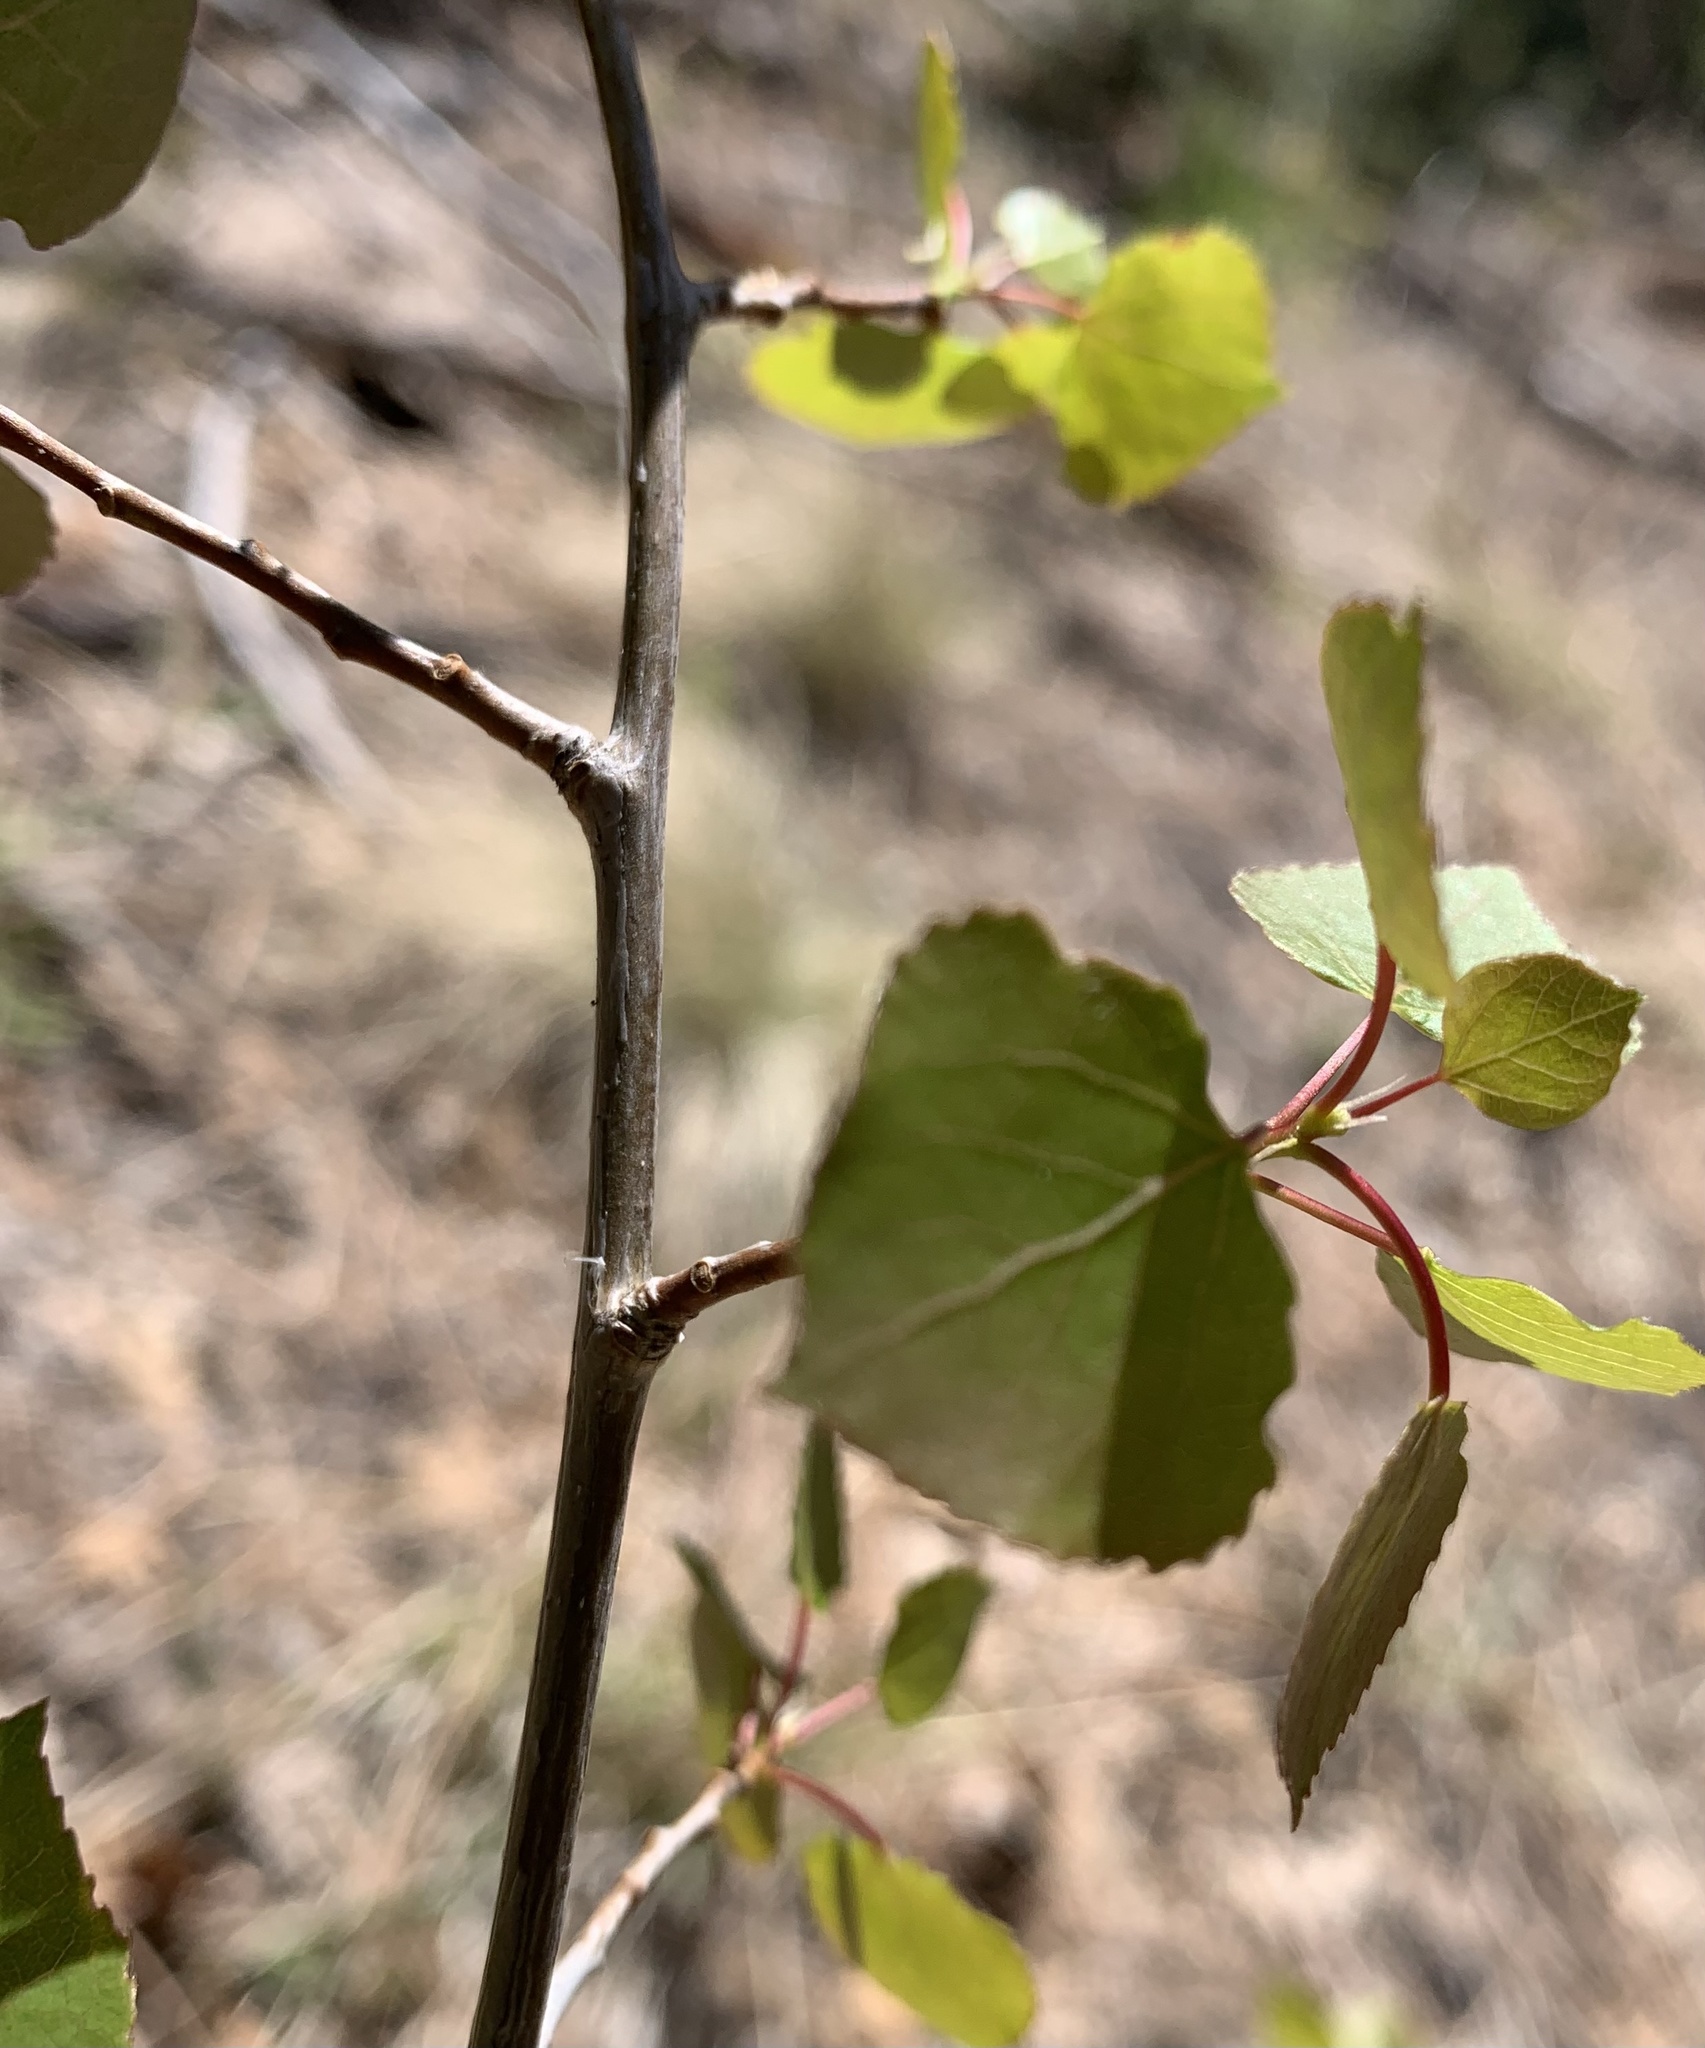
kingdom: Plantae
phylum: Tracheophyta
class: Magnoliopsida
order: Malpighiales
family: Salicaceae
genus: Populus
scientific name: Populus tremuloides
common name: Quaking aspen
